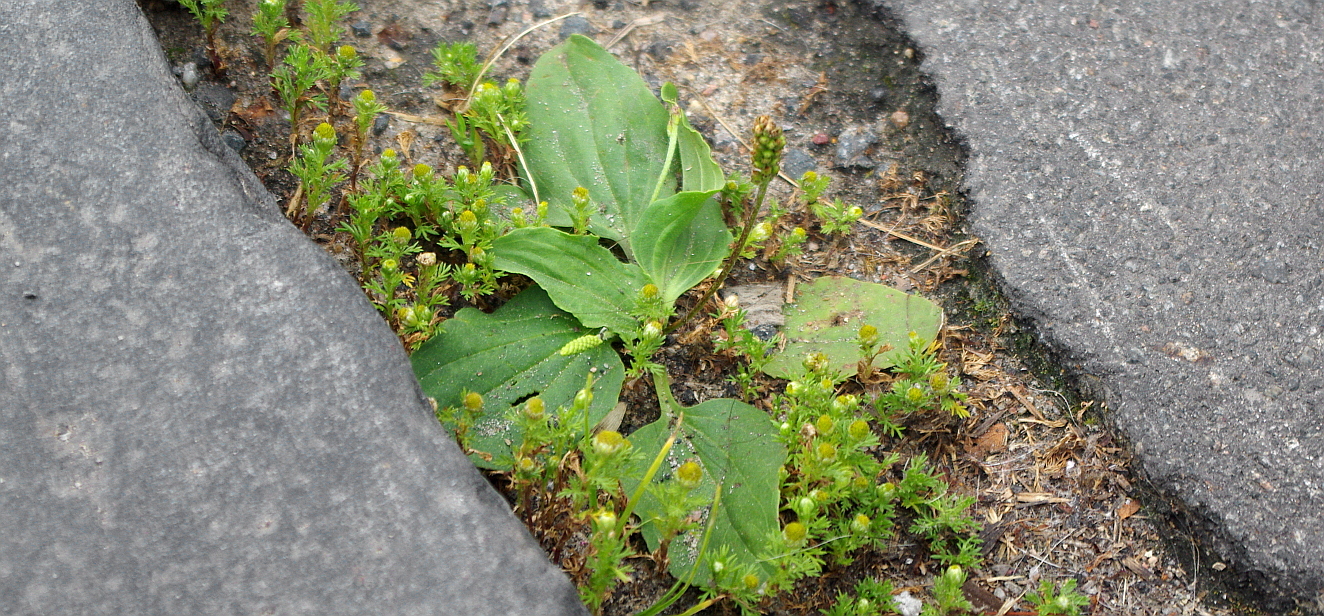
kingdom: Plantae
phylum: Tracheophyta
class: Magnoliopsida
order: Lamiales
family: Plantaginaceae
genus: Plantago
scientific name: Plantago major
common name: Common plantain
